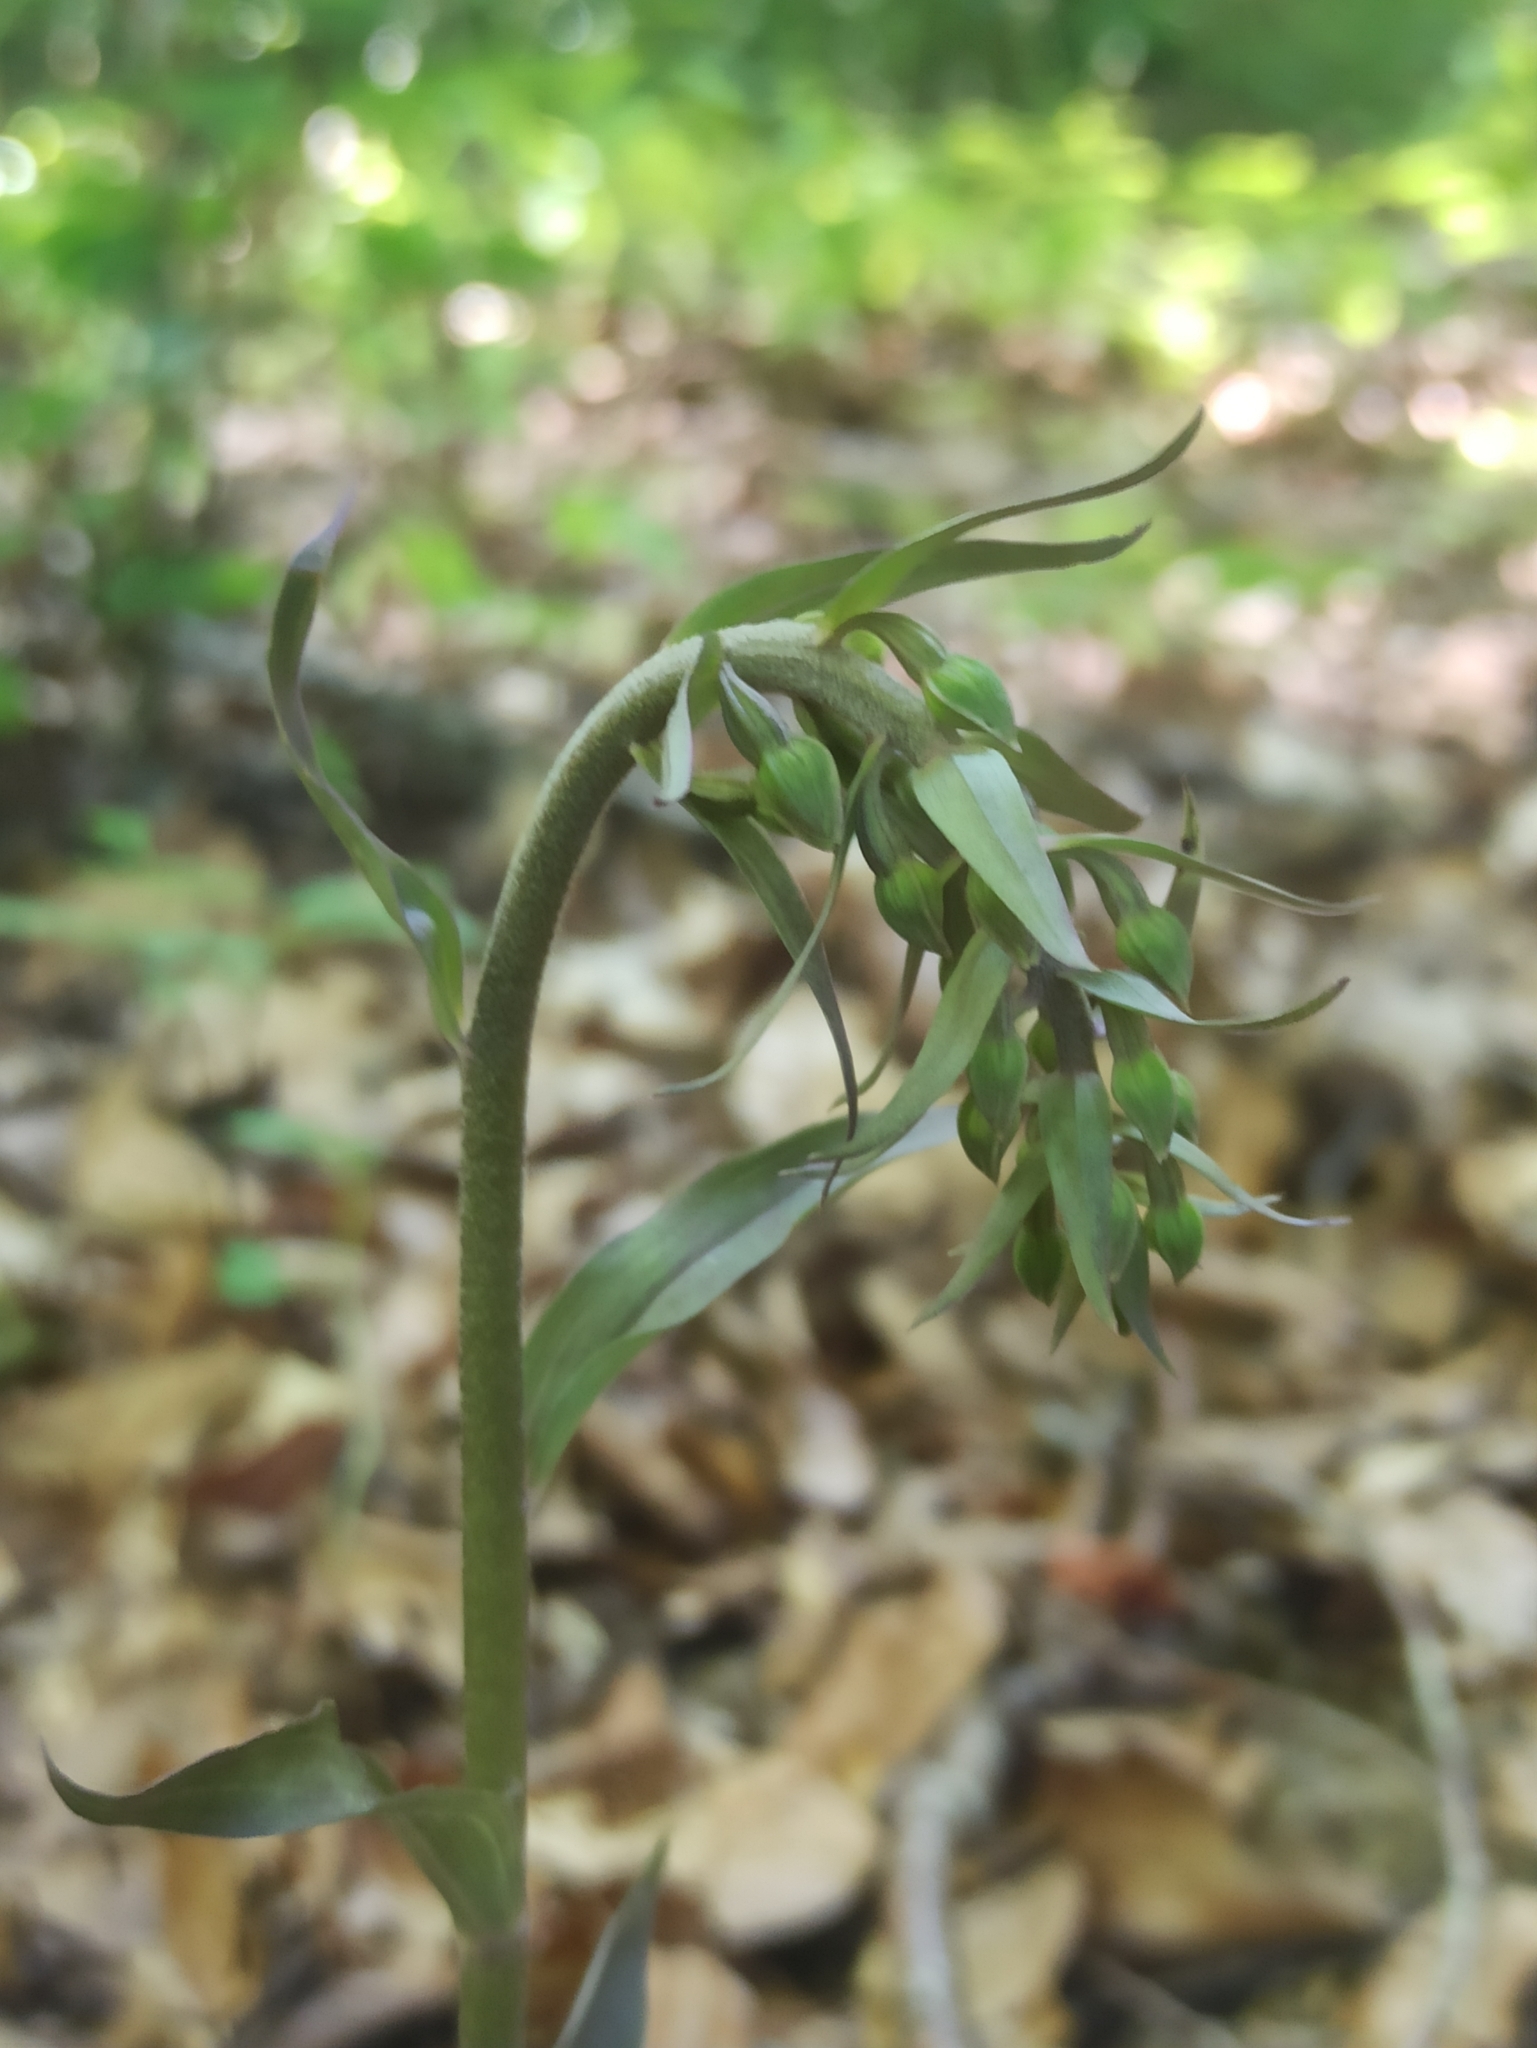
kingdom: Plantae
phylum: Tracheophyta
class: Liliopsida
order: Asparagales
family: Orchidaceae
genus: Epipactis
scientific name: Epipactis purpurata
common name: Violet helleborine
